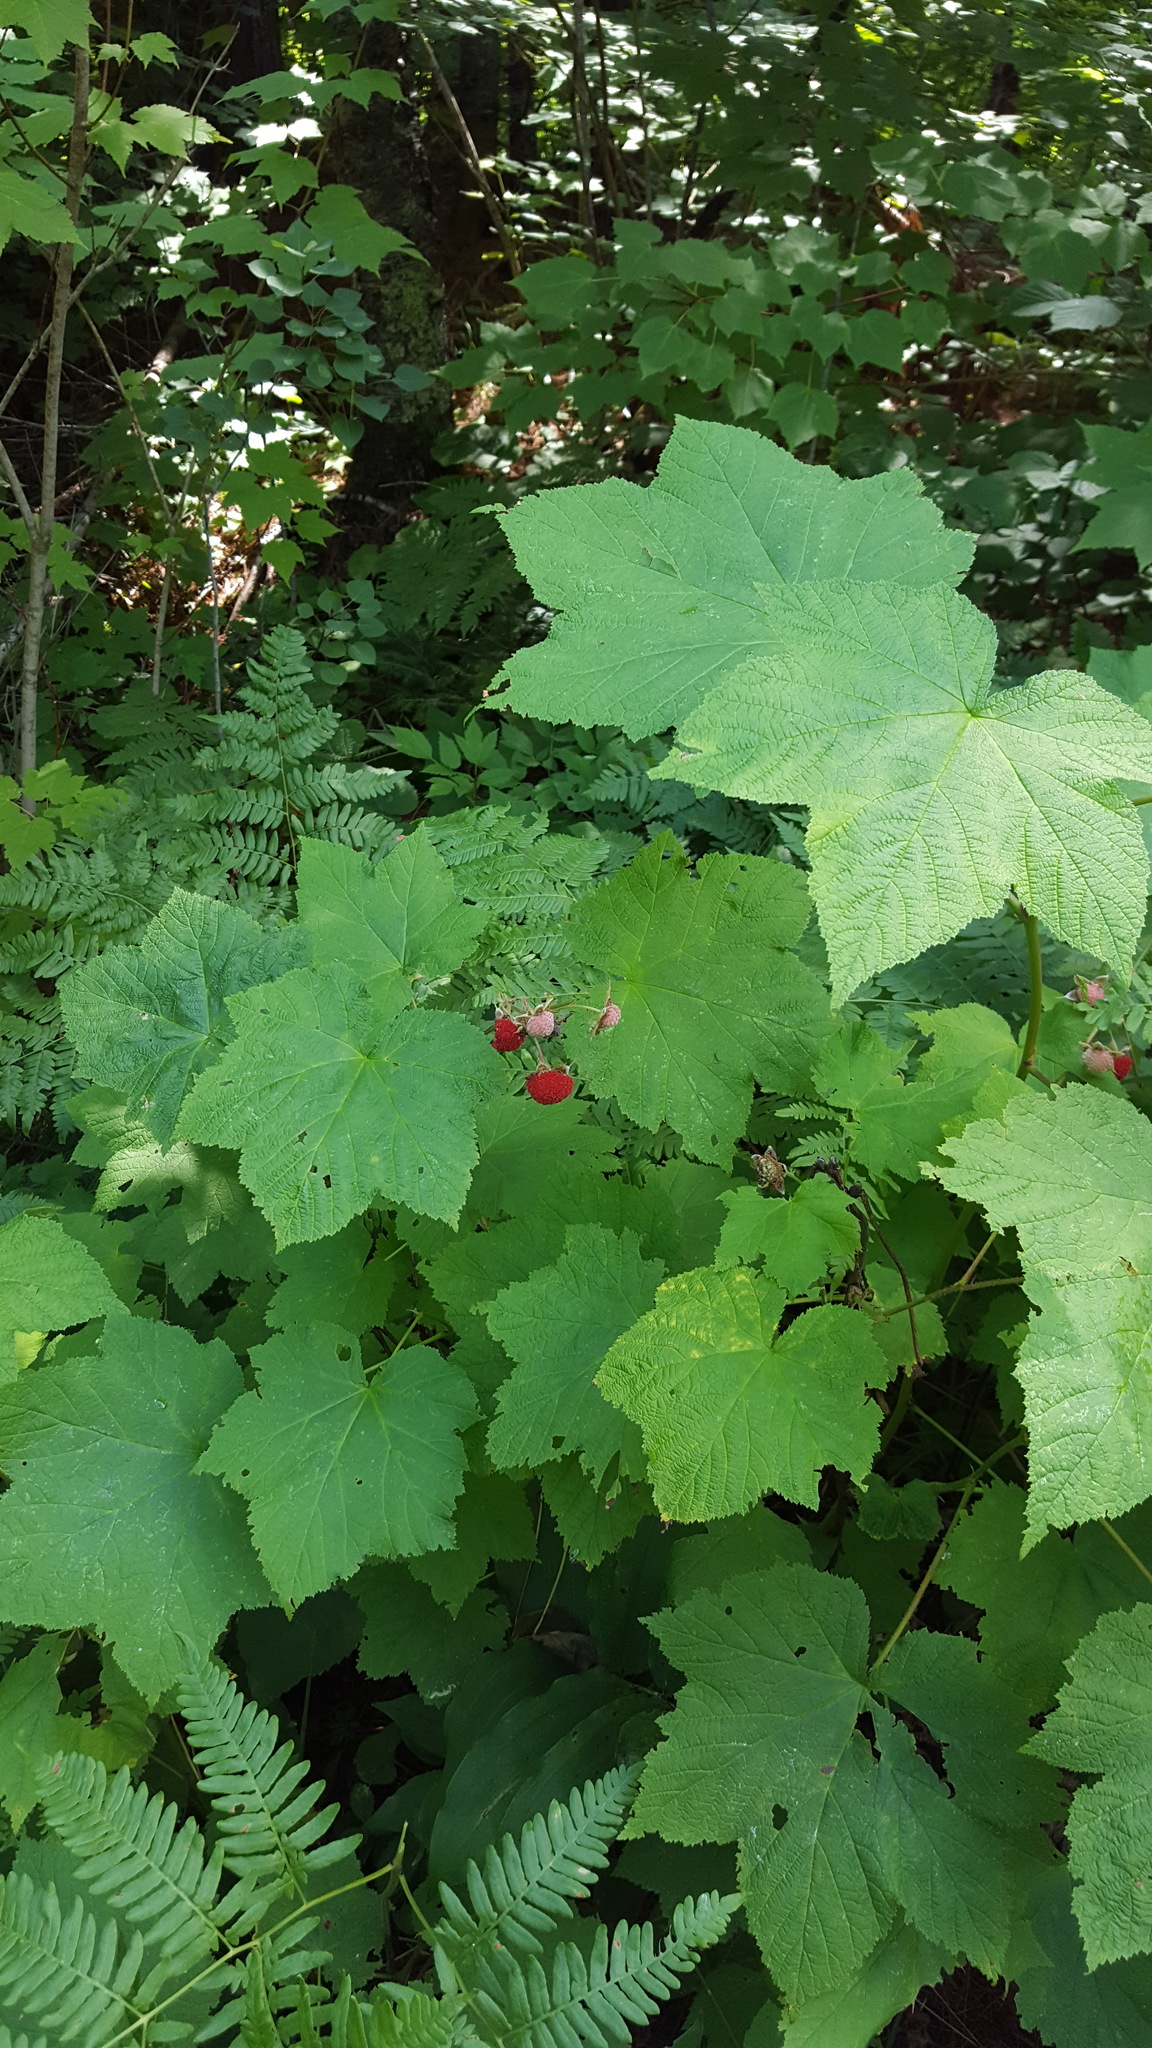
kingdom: Plantae
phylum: Tracheophyta
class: Magnoliopsida
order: Rosales
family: Rosaceae
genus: Rubus
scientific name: Rubus parviflorus
